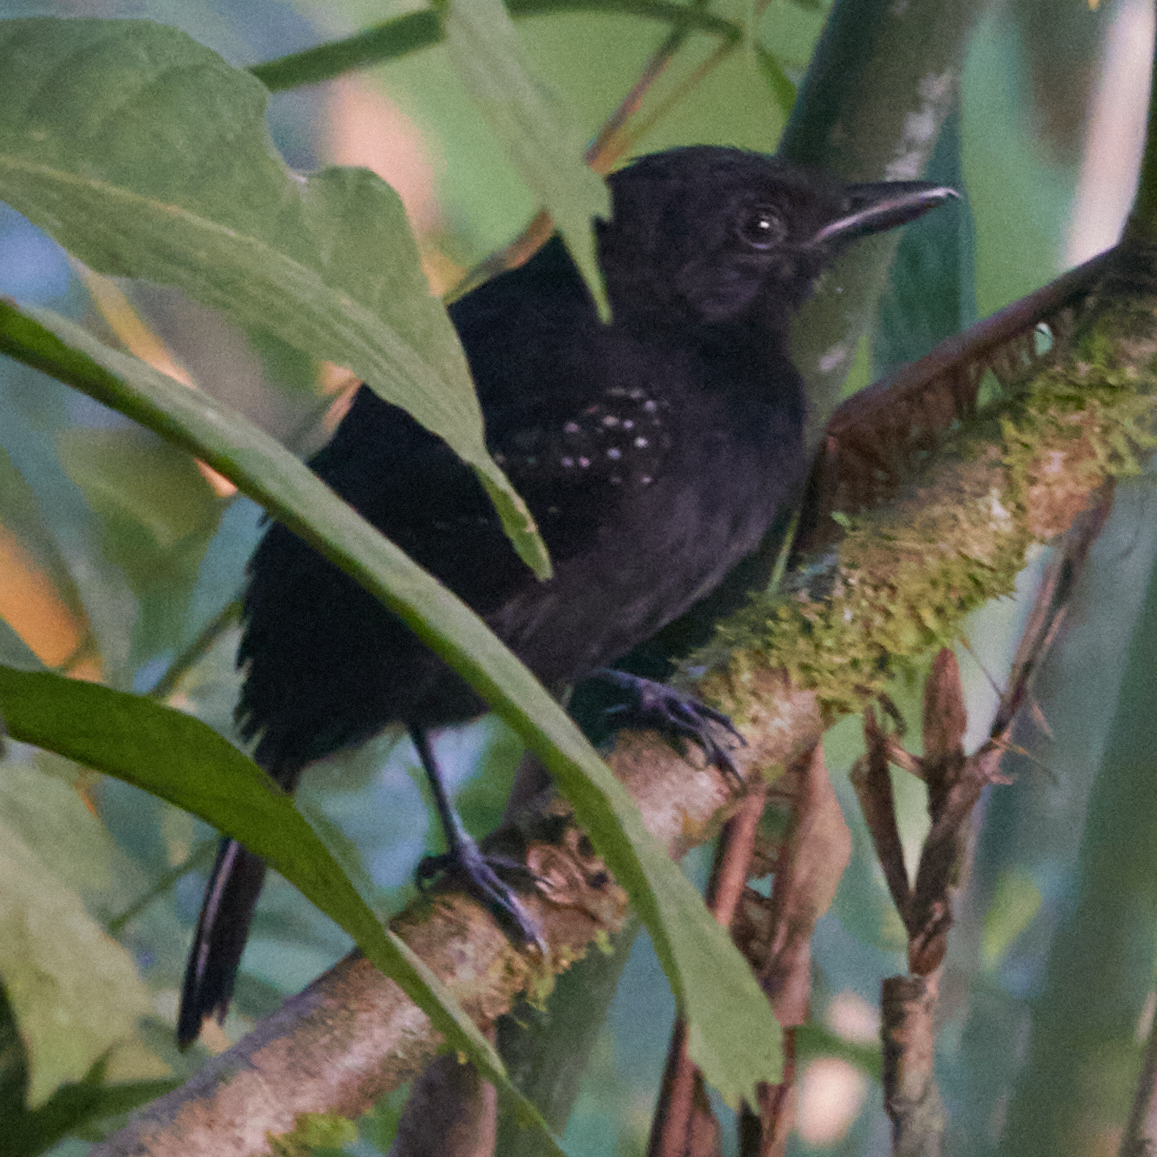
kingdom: Animalia
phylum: Chordata
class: Aves
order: Passeriformes
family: Thamnophilidae
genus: Thamnophilus
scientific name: Thamnophilus bridgesi
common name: Black-hooded antshrike
